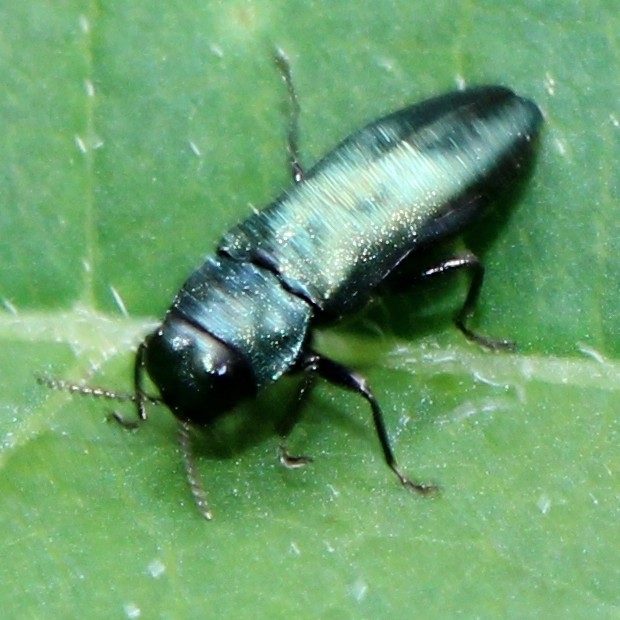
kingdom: Animalia
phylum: Arthropoda
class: Insecta
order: Coleoptera
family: Buprestidae
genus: Agrilus
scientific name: Agrilus cyanescens
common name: Bluish borer beetle
